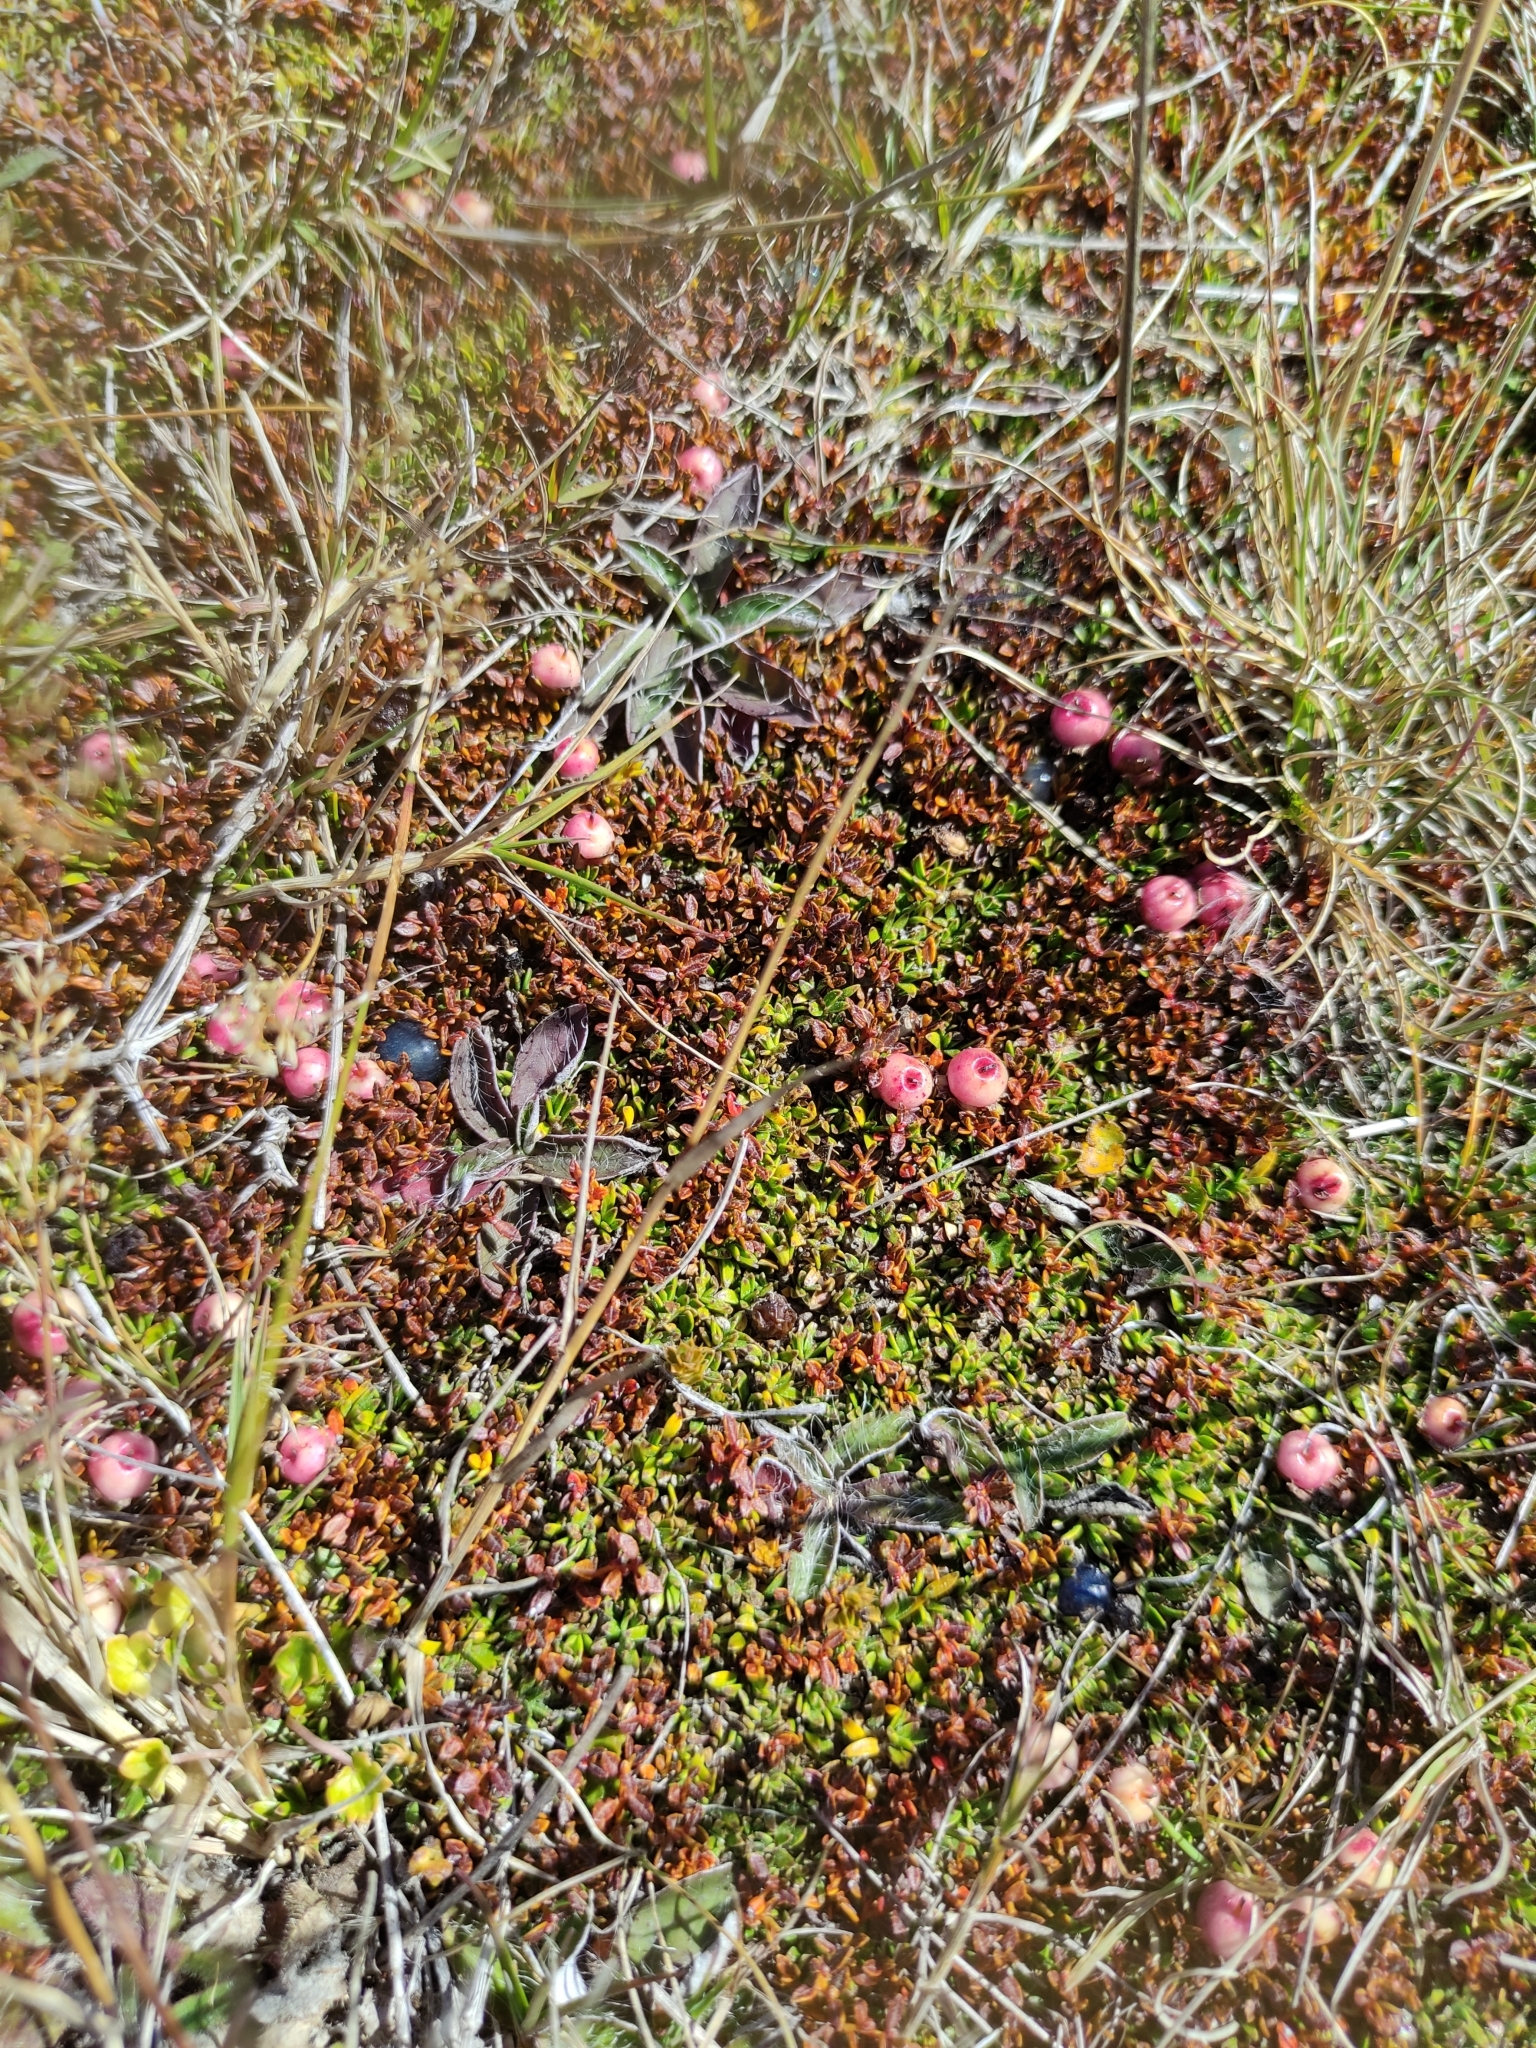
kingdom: Plantae
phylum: Tracheophyta
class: Magnoliopsida
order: Ericales
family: Ericaceae
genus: Gaultheria
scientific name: Gaultheria parvula
